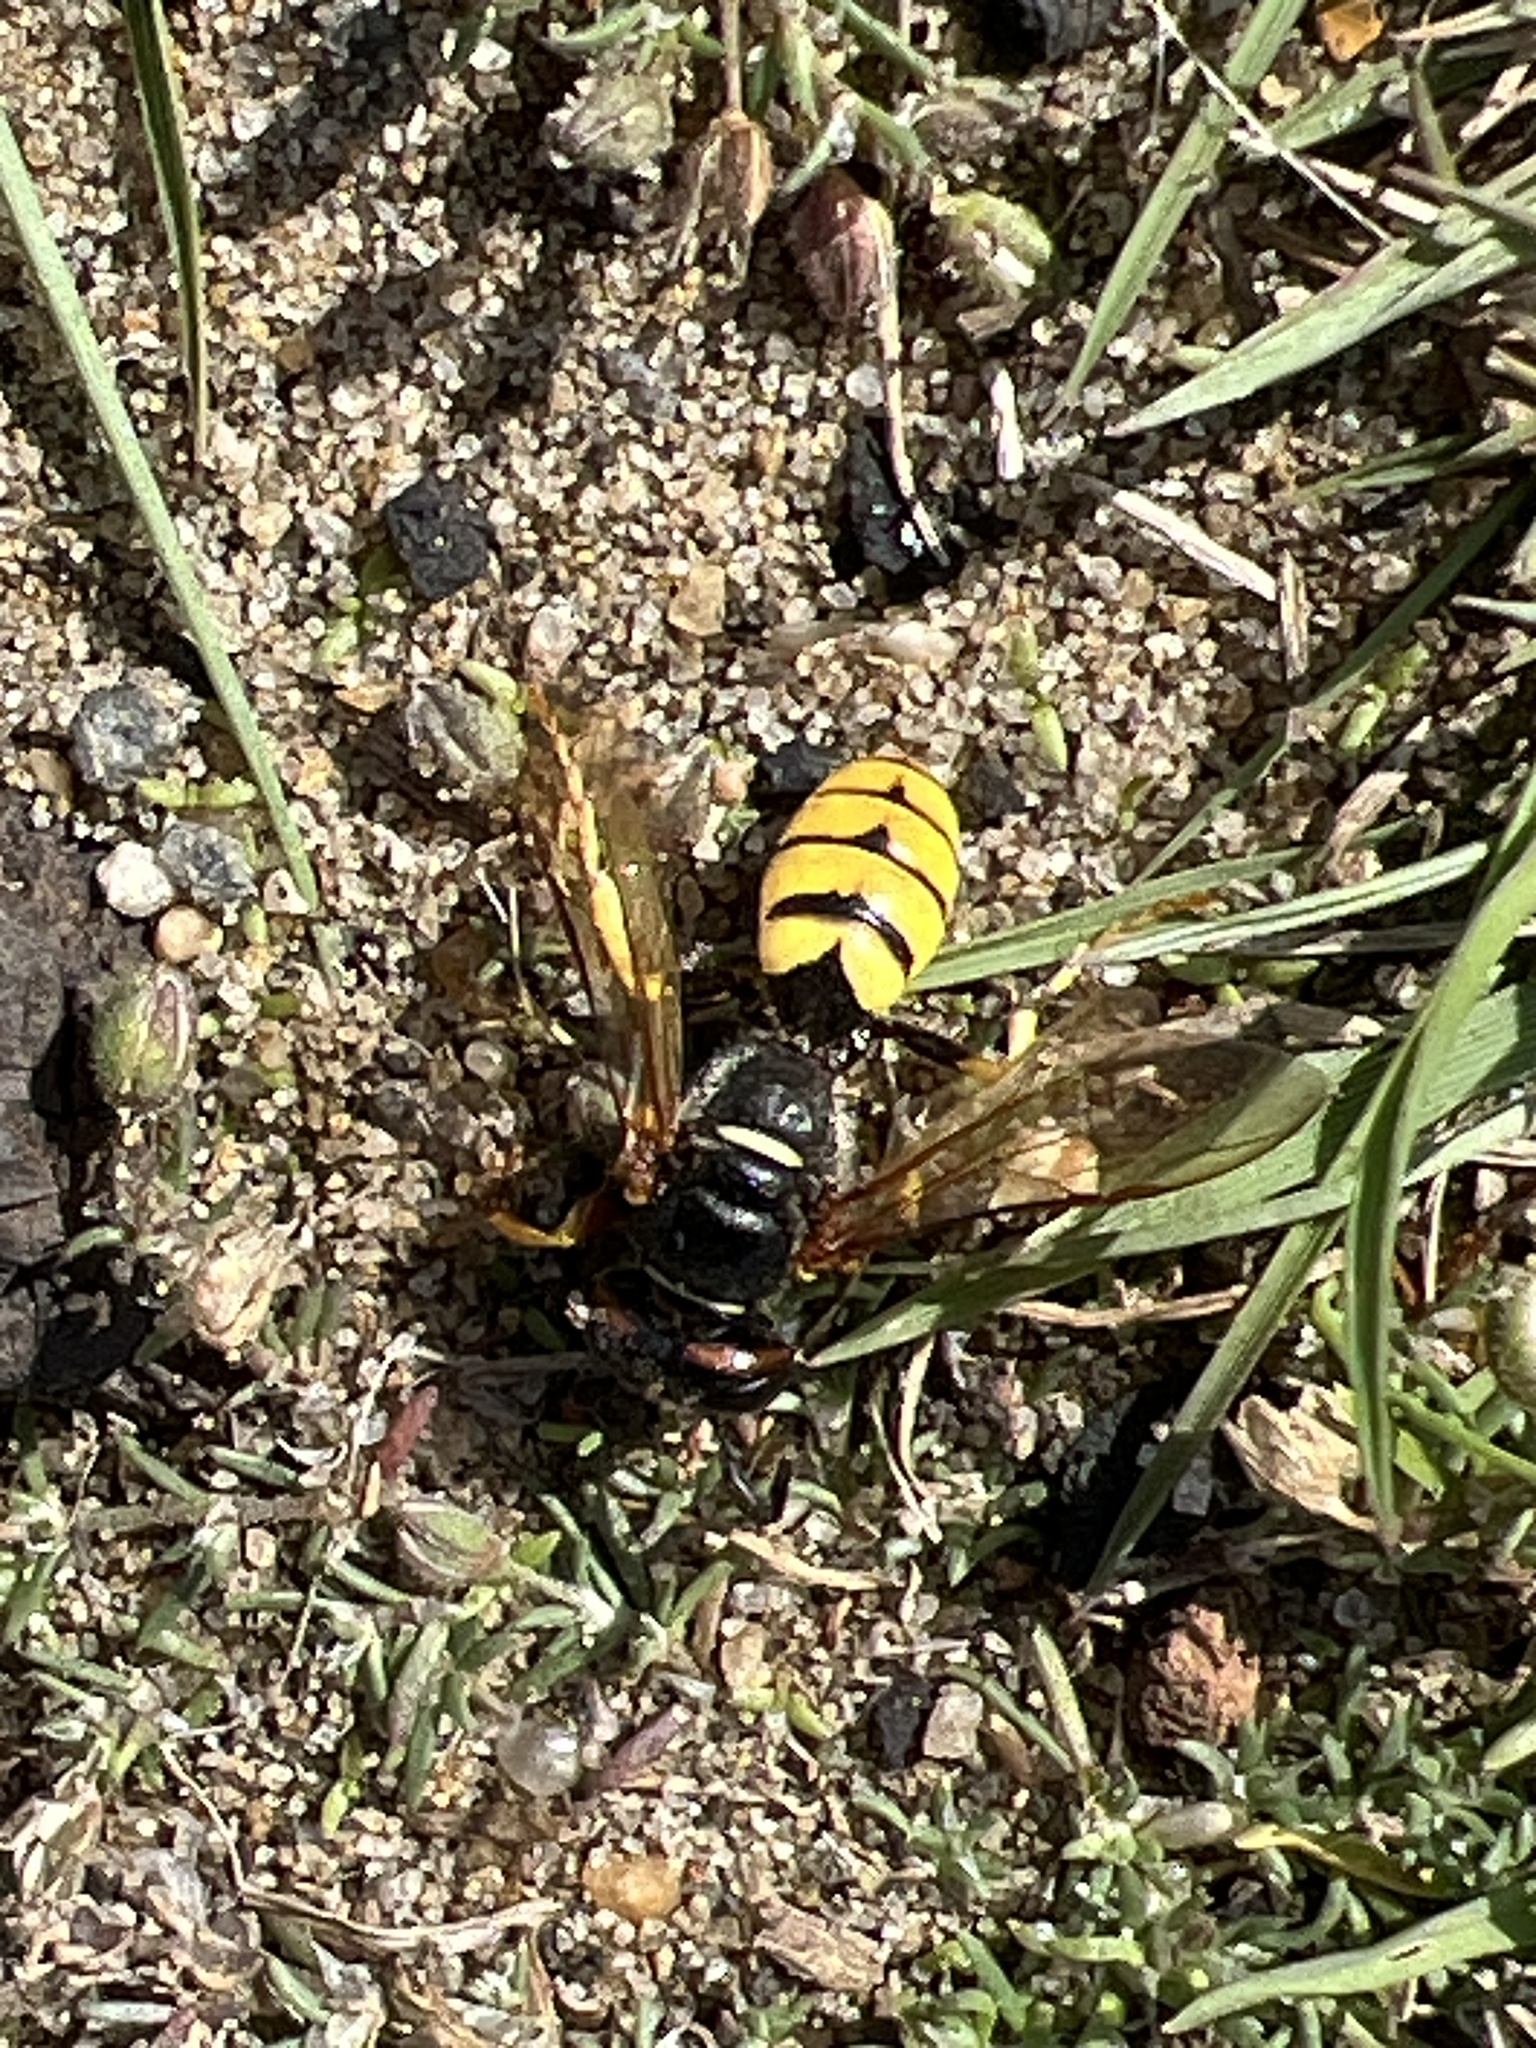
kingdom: Animalia
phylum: Arthropoda
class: Insecta
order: Hymenoptera
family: Crabronidae
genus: Philanthus
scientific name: Philanthus triangulum
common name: Bee wolf
